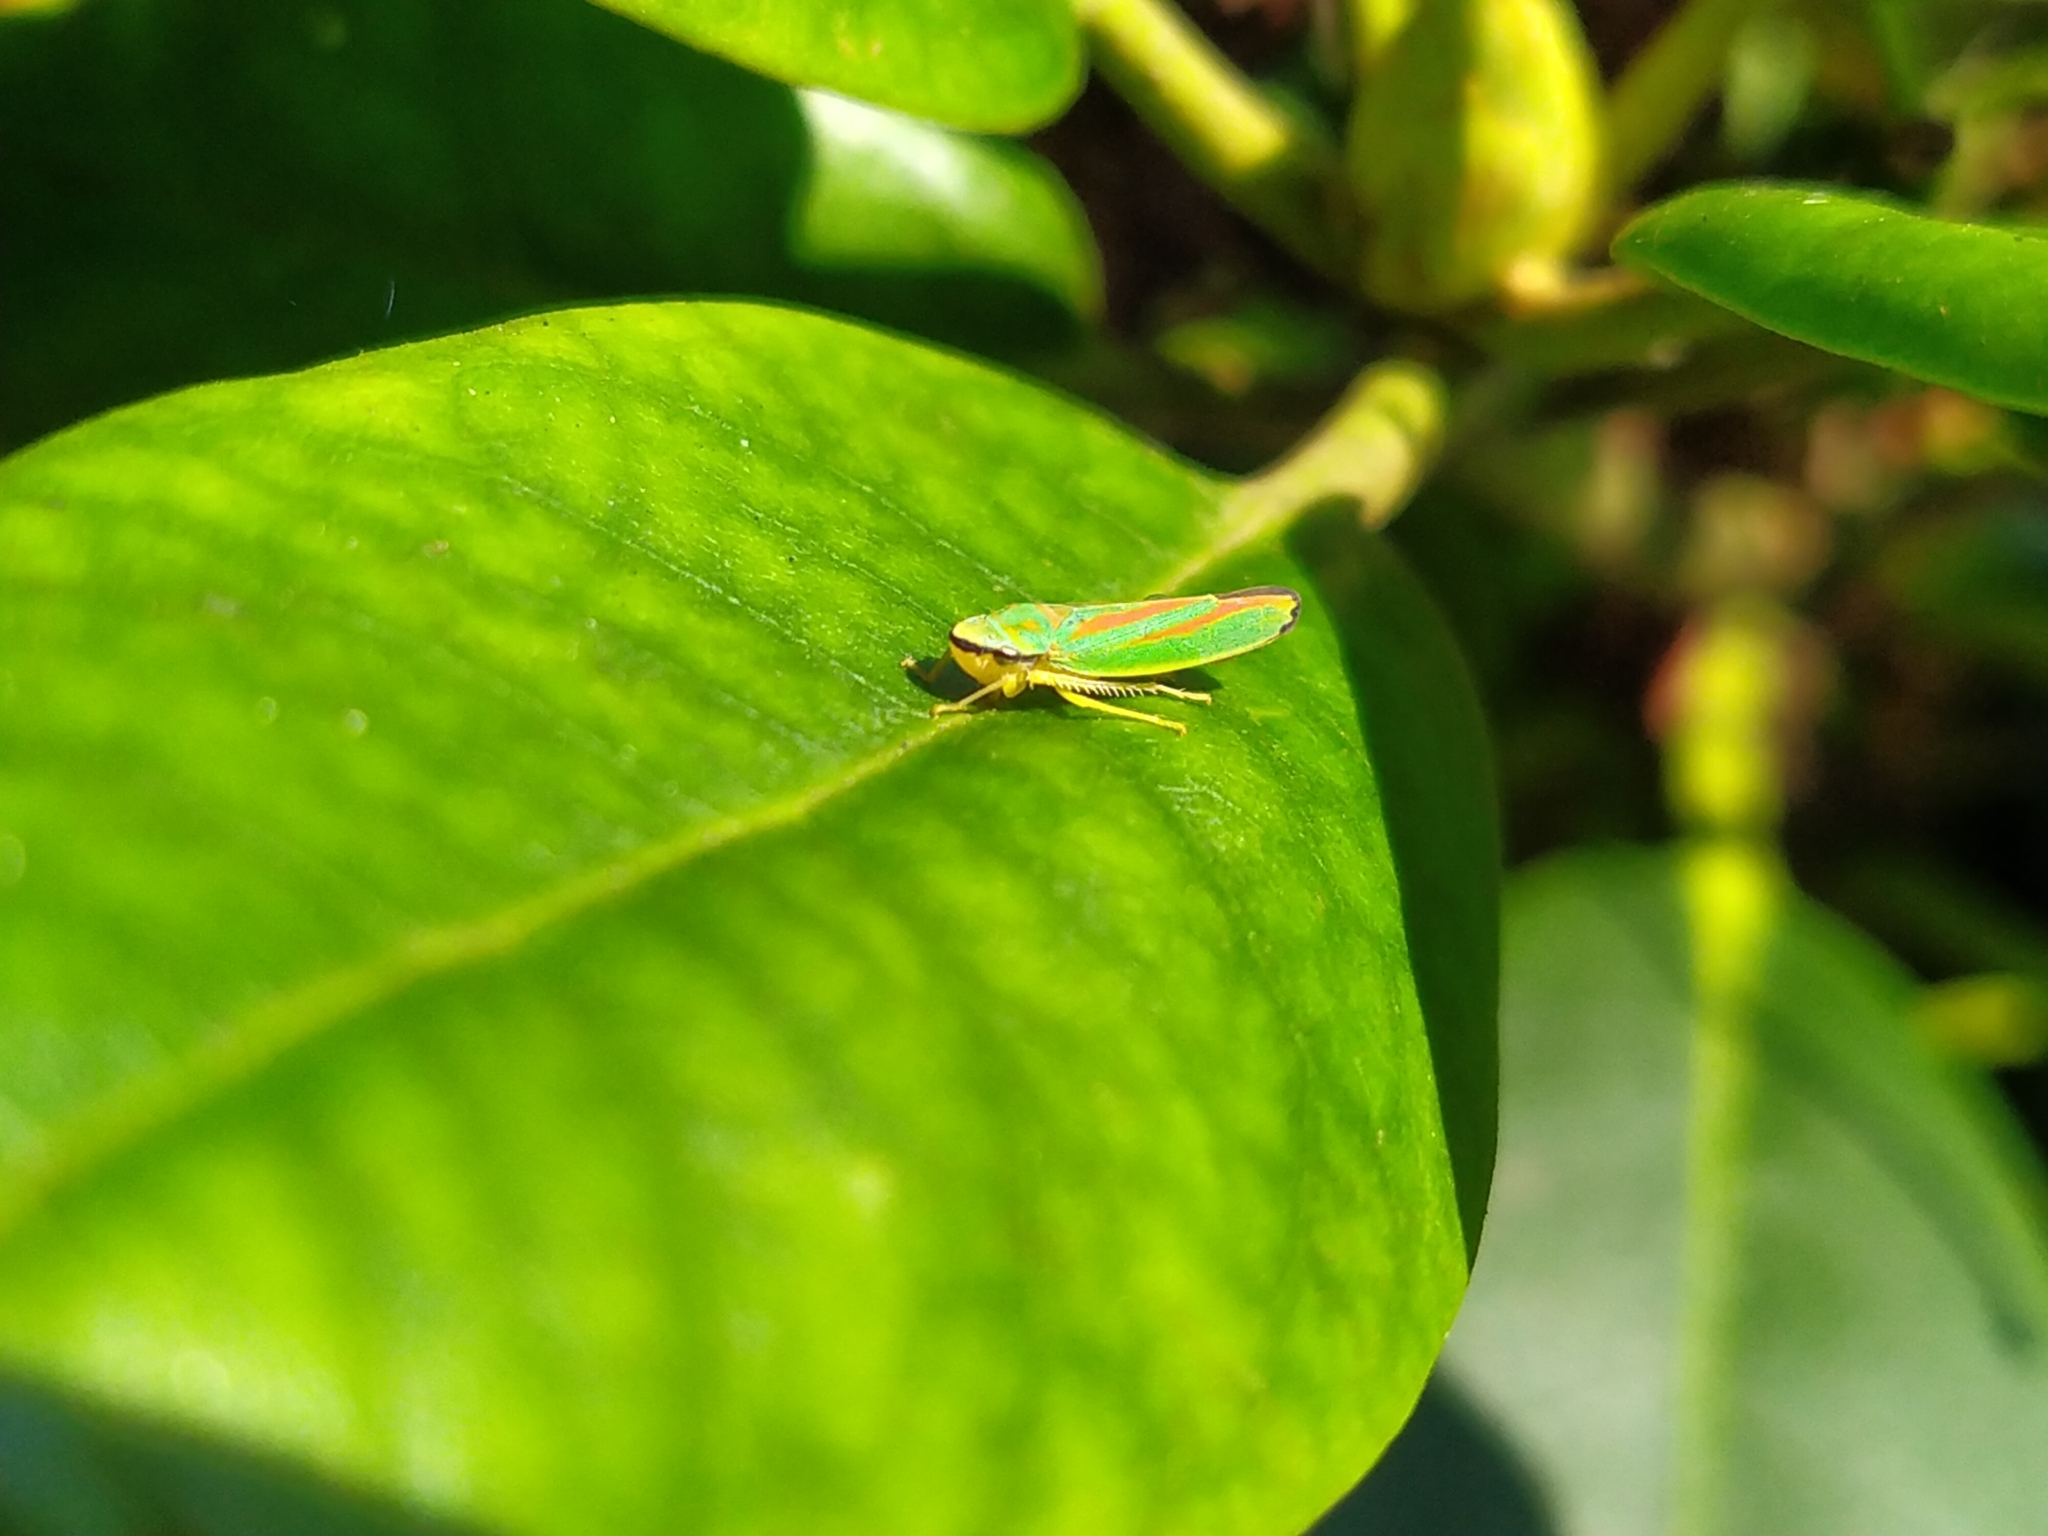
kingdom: Animalia
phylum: Arthropoda
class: Insecta
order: Hemiptera
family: Cicadellidae
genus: Graphocephala
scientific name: Graphocephala fennahi
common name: Rhododendron leafhopper
